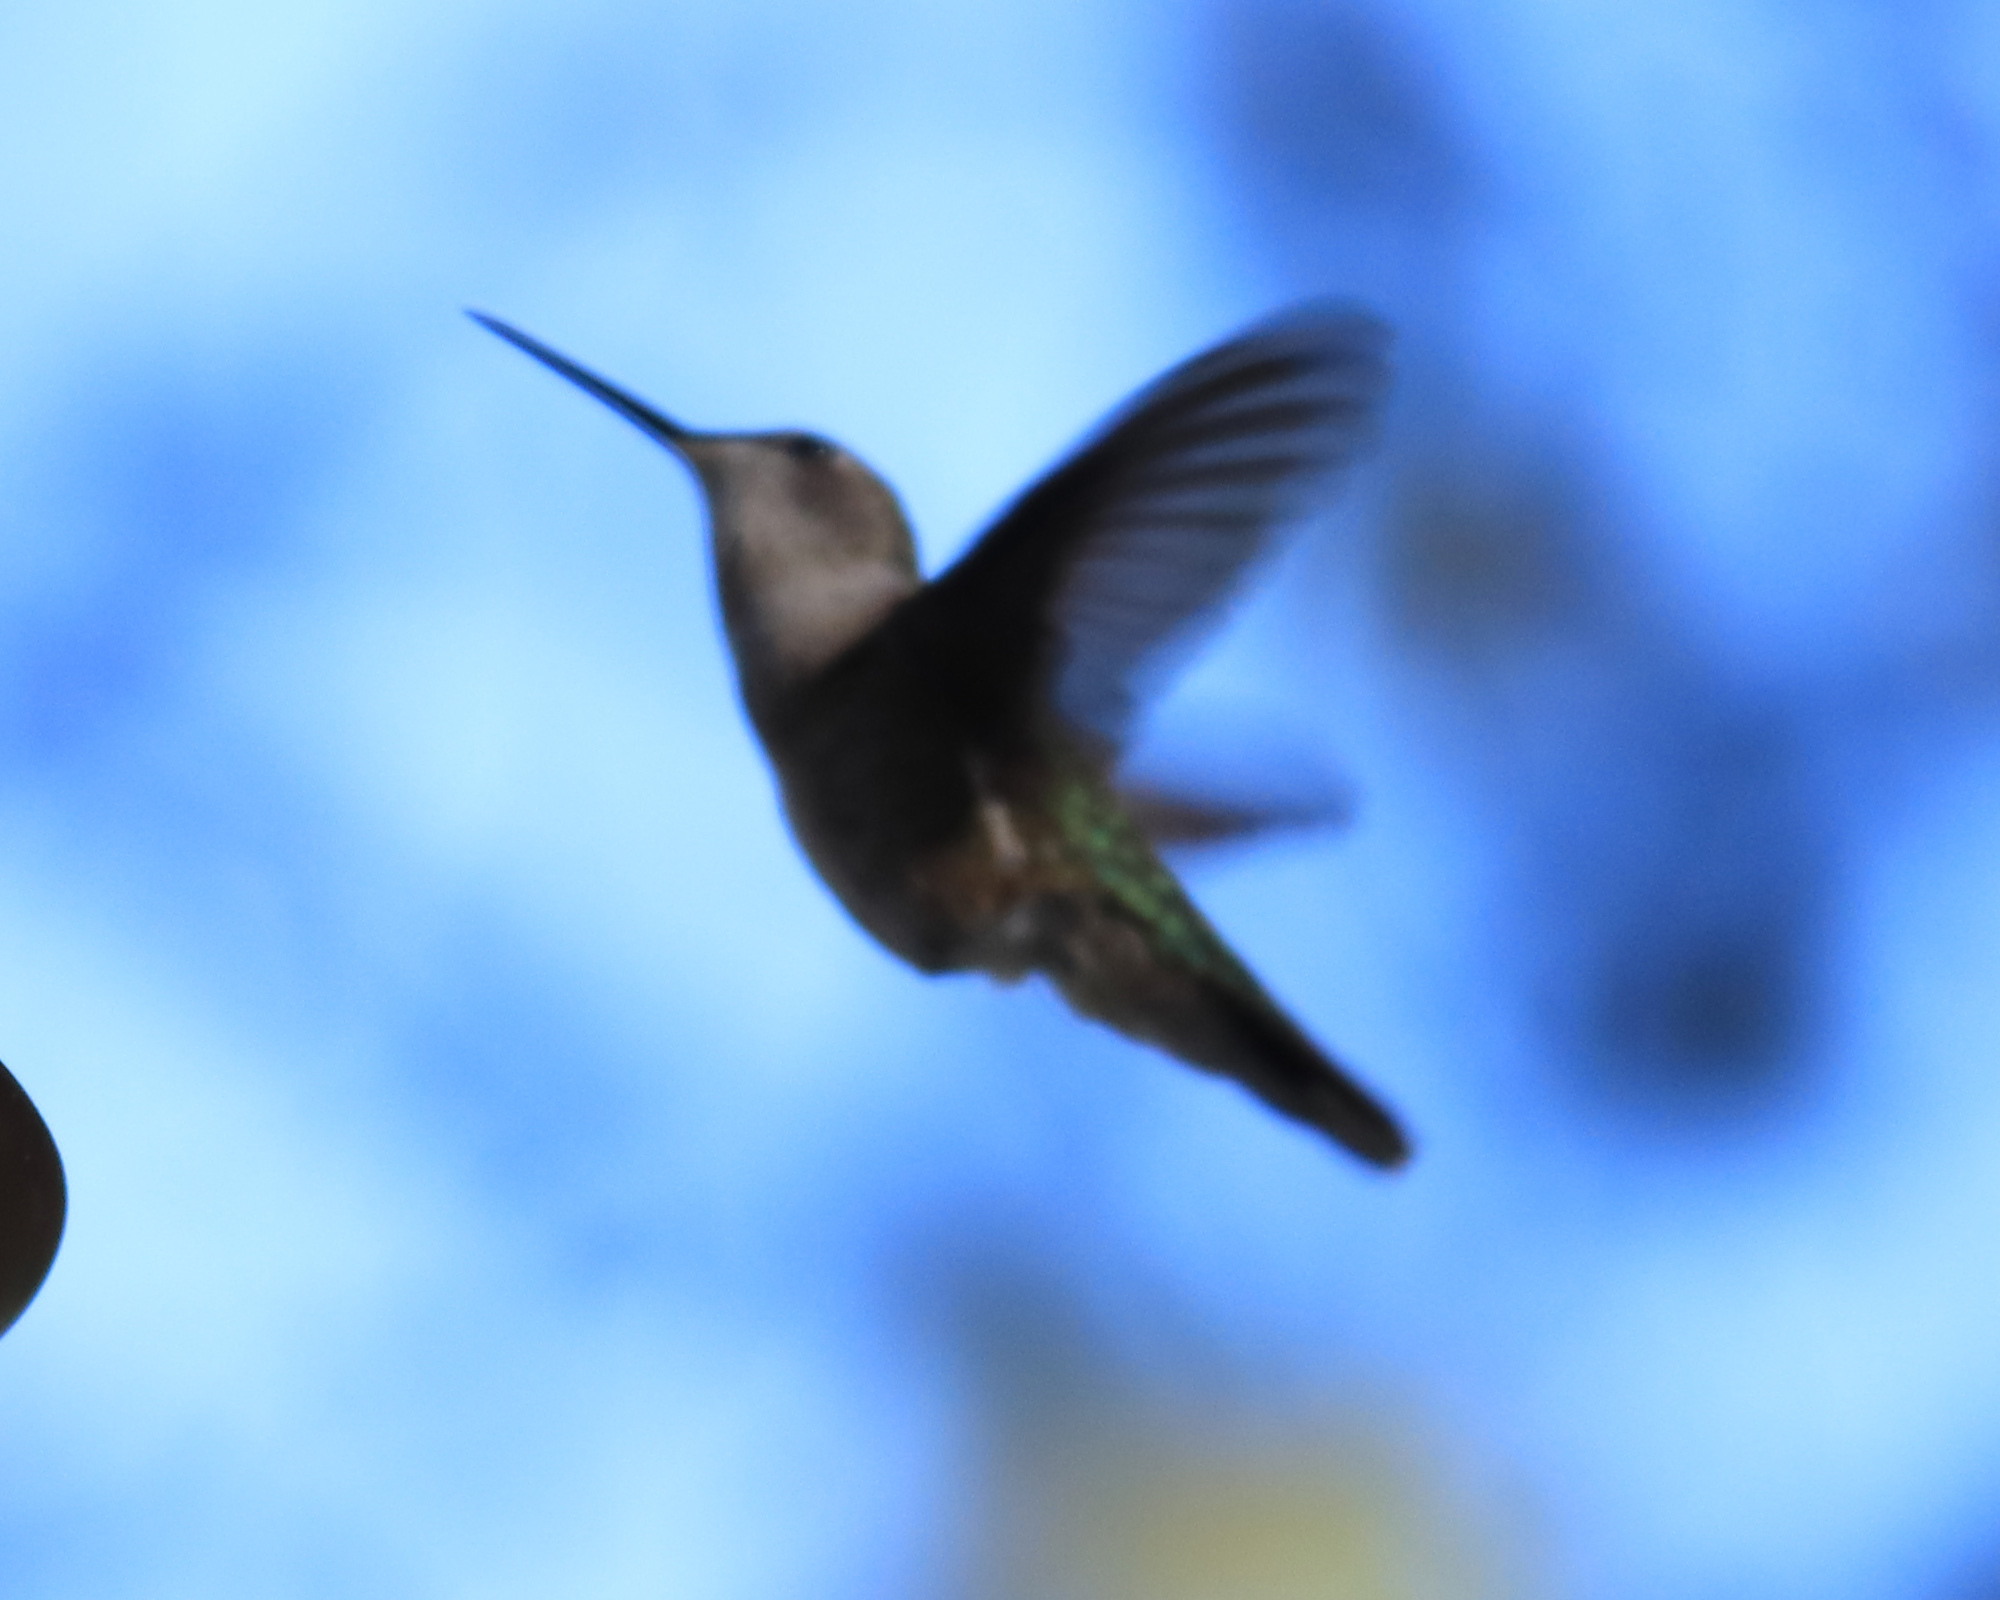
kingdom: Animalia
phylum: Chordata
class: Aves
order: Apodiformes
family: Trochilidae
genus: Archilochus
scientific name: Archilochus alexandri
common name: Black-chinned hummingbird
